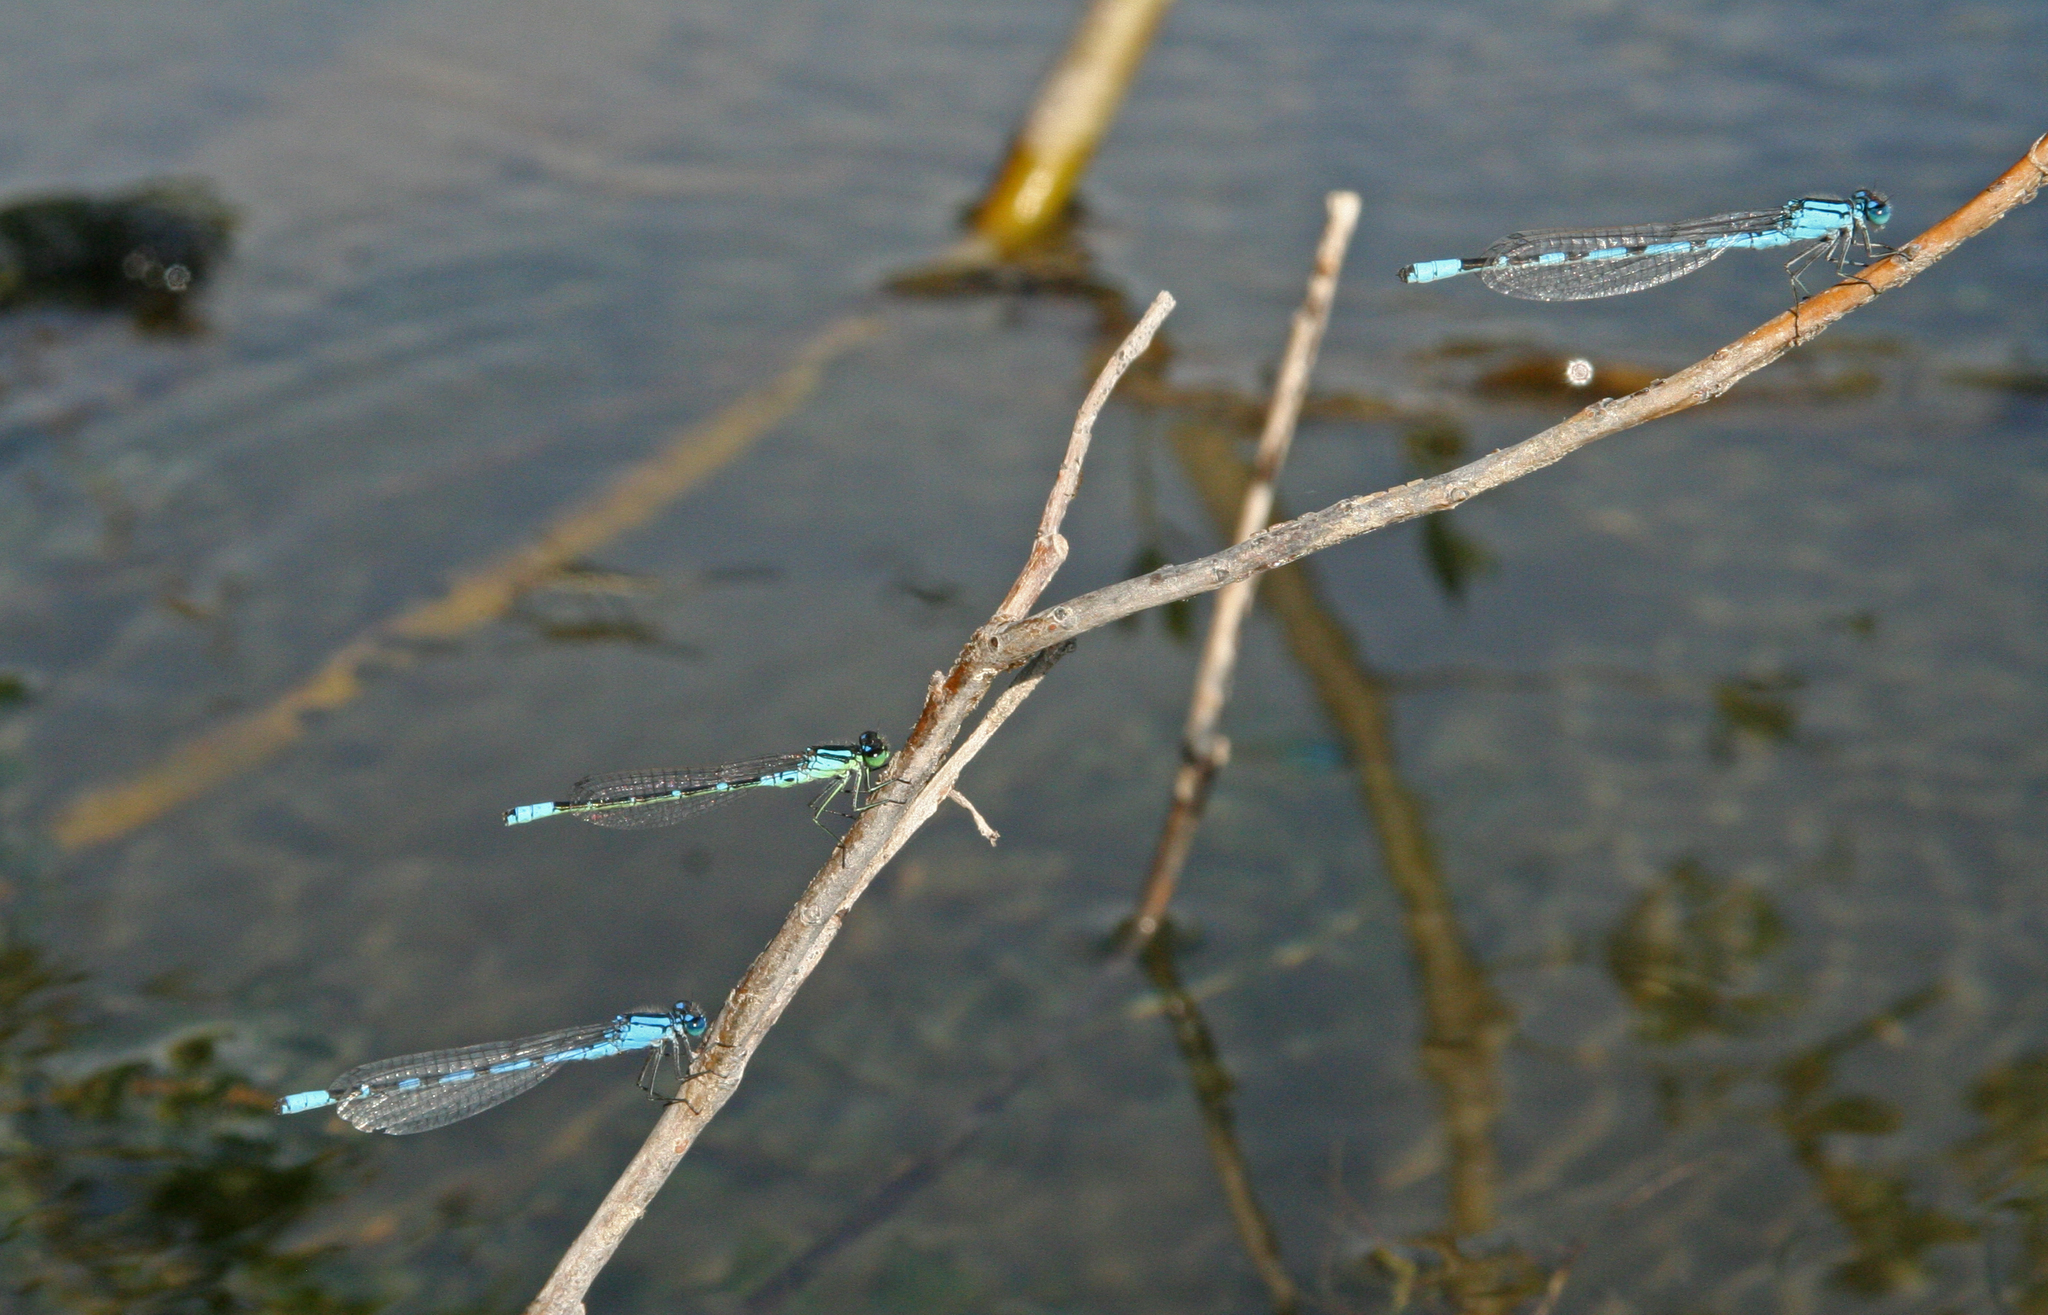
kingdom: Animalia
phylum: Arthropoda
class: Insecta
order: Odonata
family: Coenagrionidae
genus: Enallagma
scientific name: Enallagma cyathigerum
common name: Common blue damselfly
